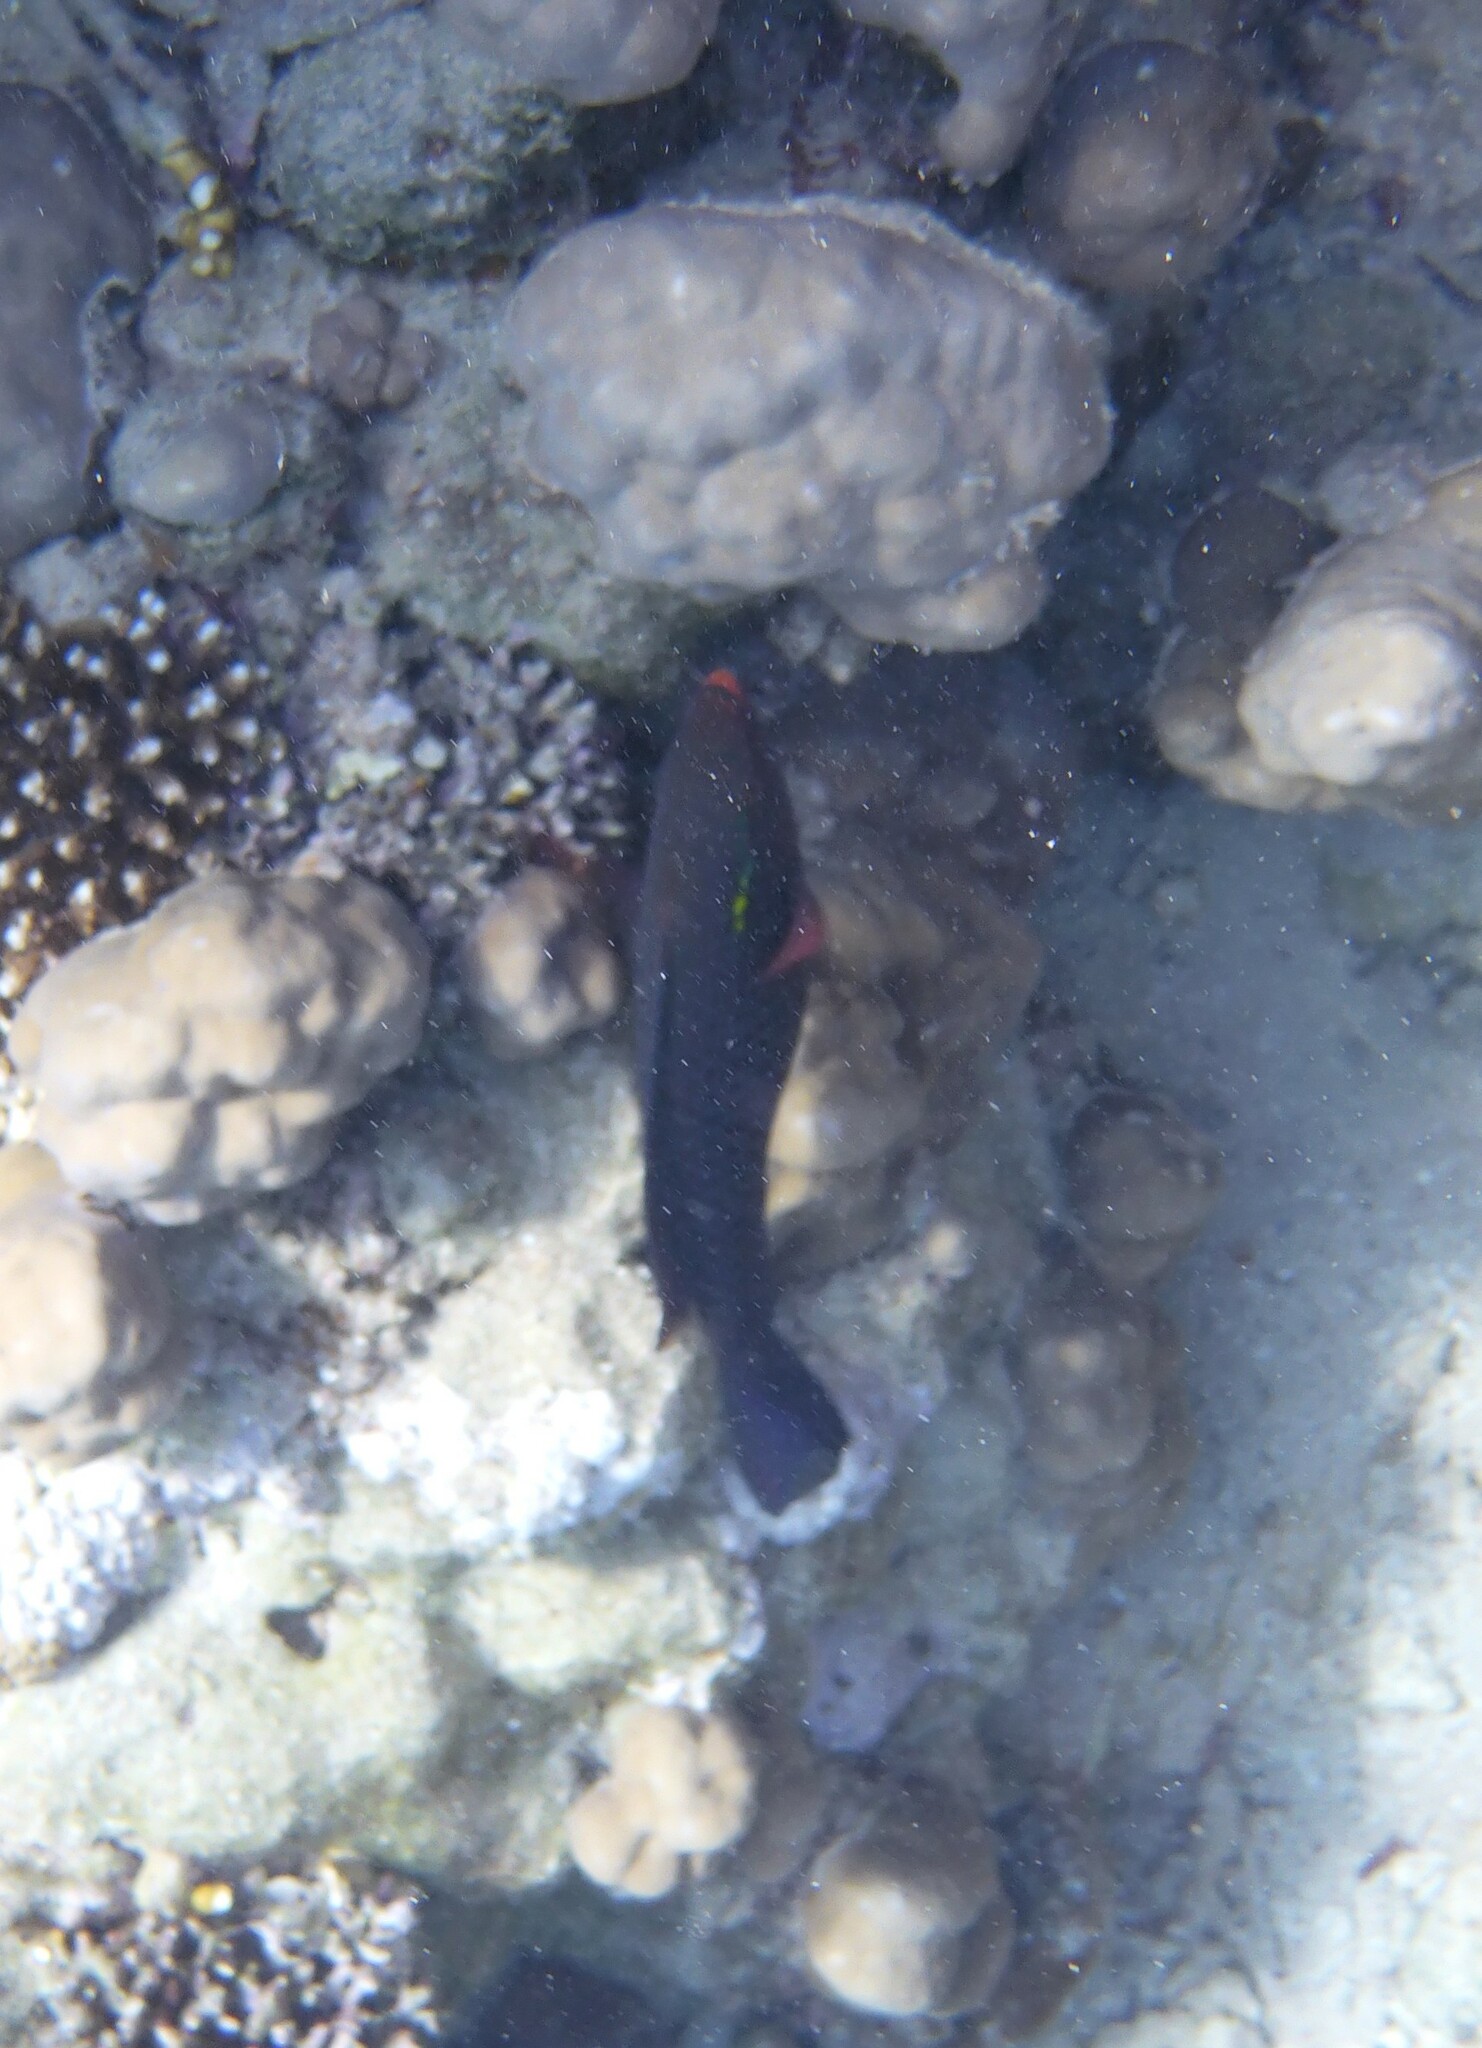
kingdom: Animalia
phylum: Chordata
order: Perciformes
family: Scaridae
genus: Scarus
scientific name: Scarus niger
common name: Dusky parrotfish
